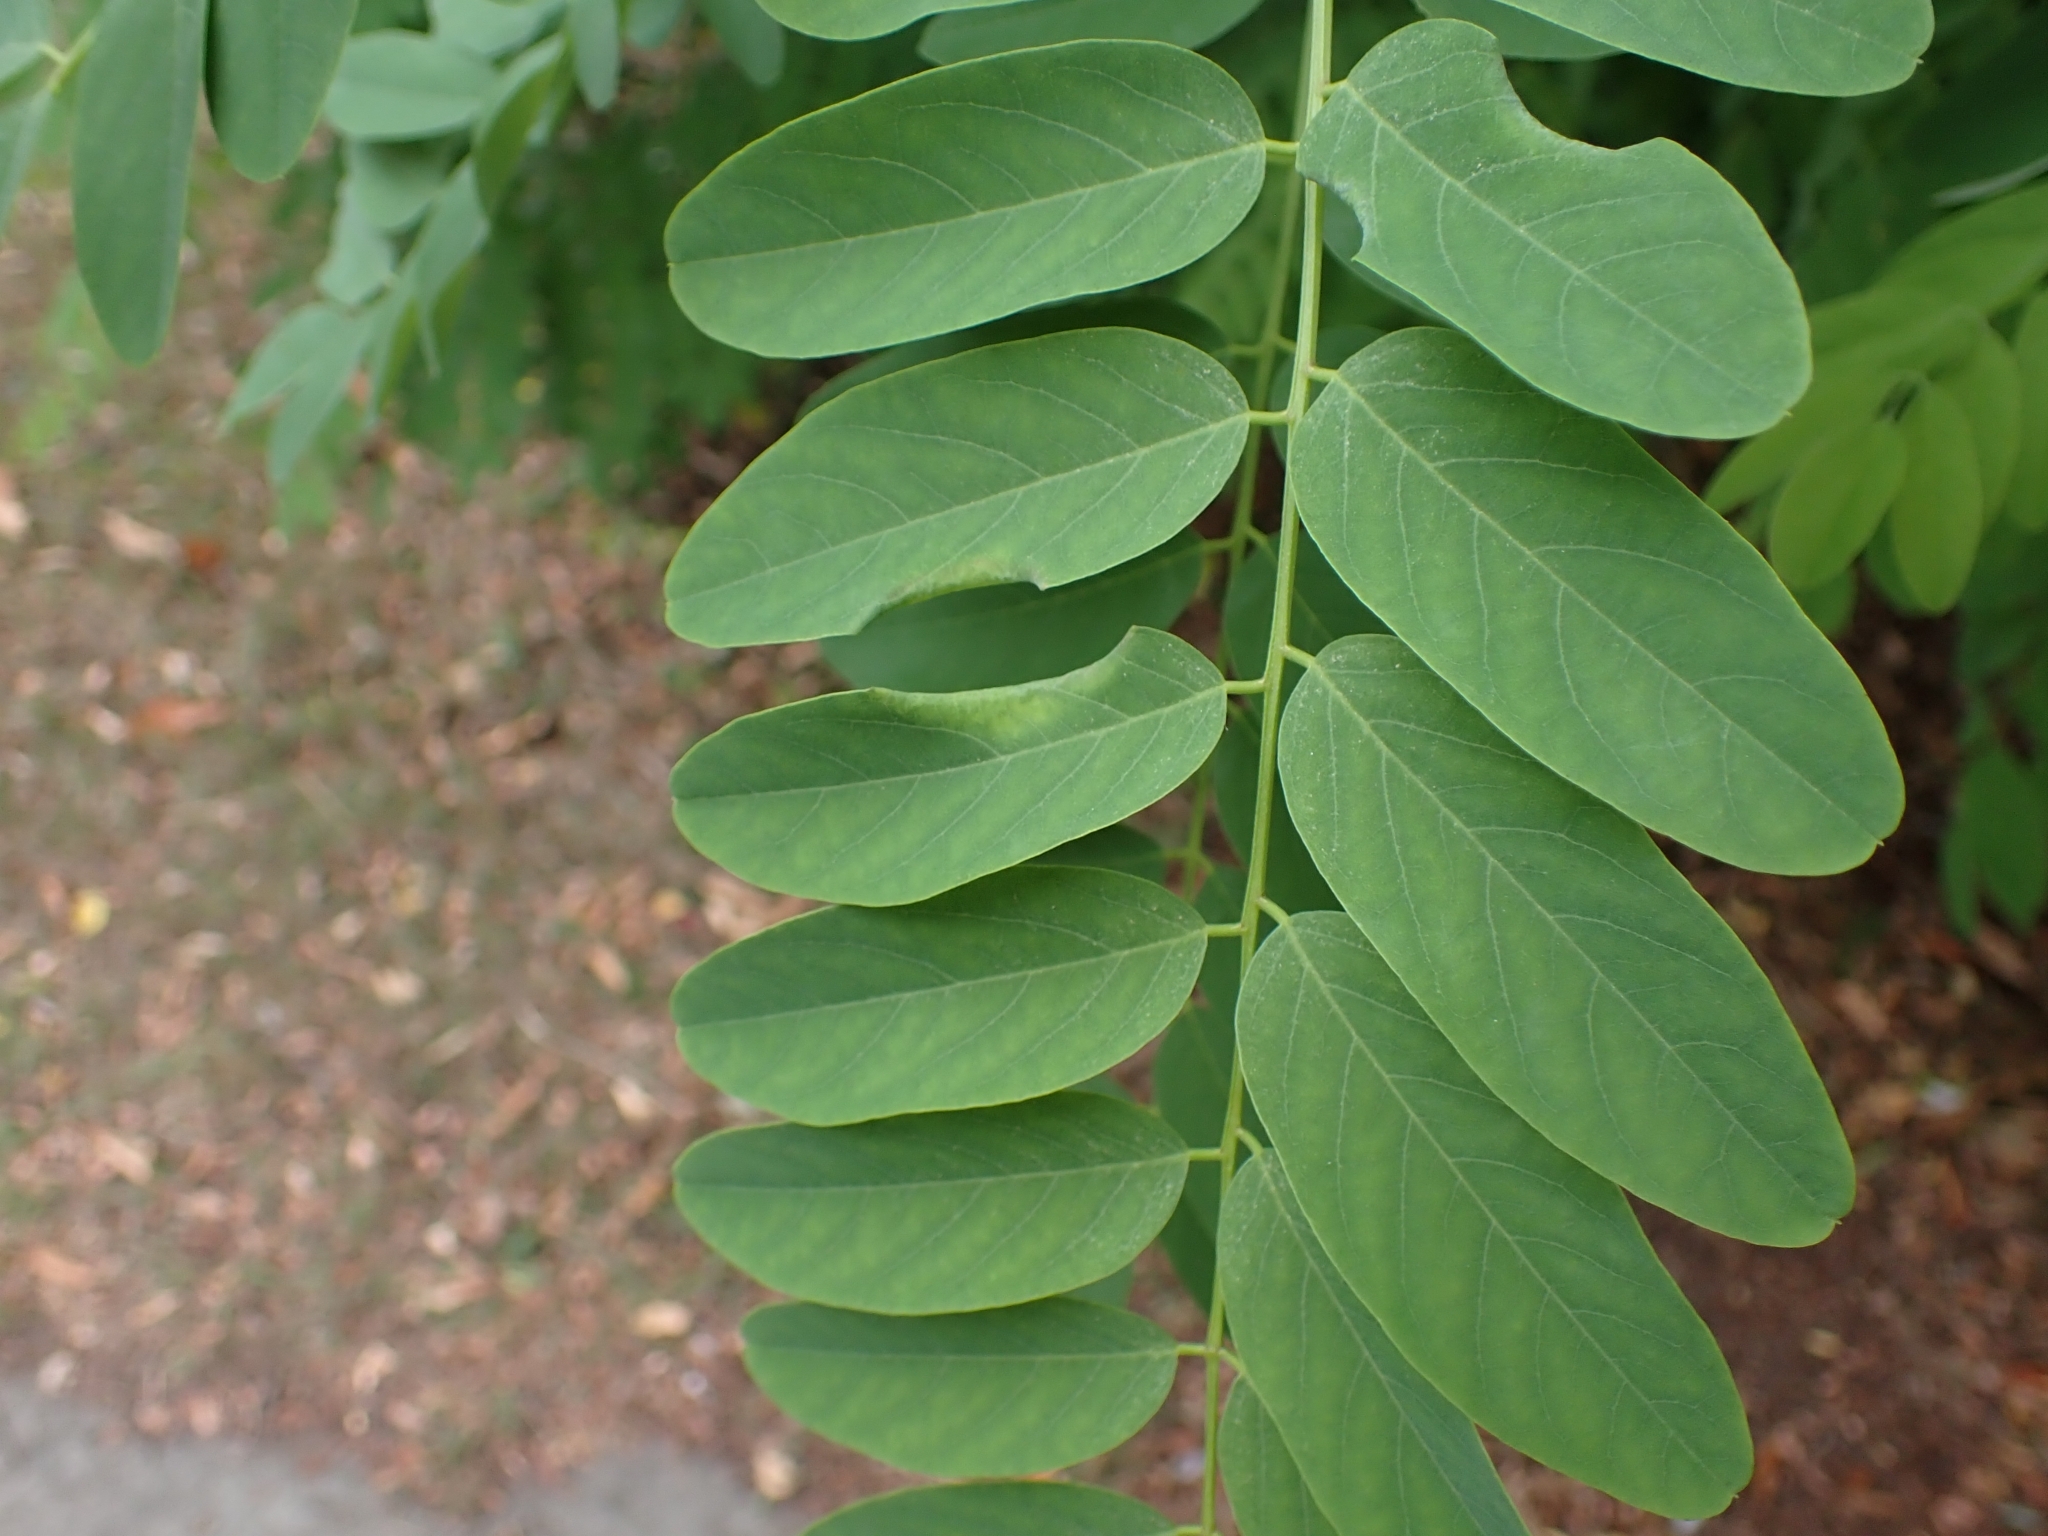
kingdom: Animalia
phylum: Arthropoda
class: Insecta
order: Diptera
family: Cecidomyiidae
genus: Obolodiplosis
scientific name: Obolodiplosis robiniae
